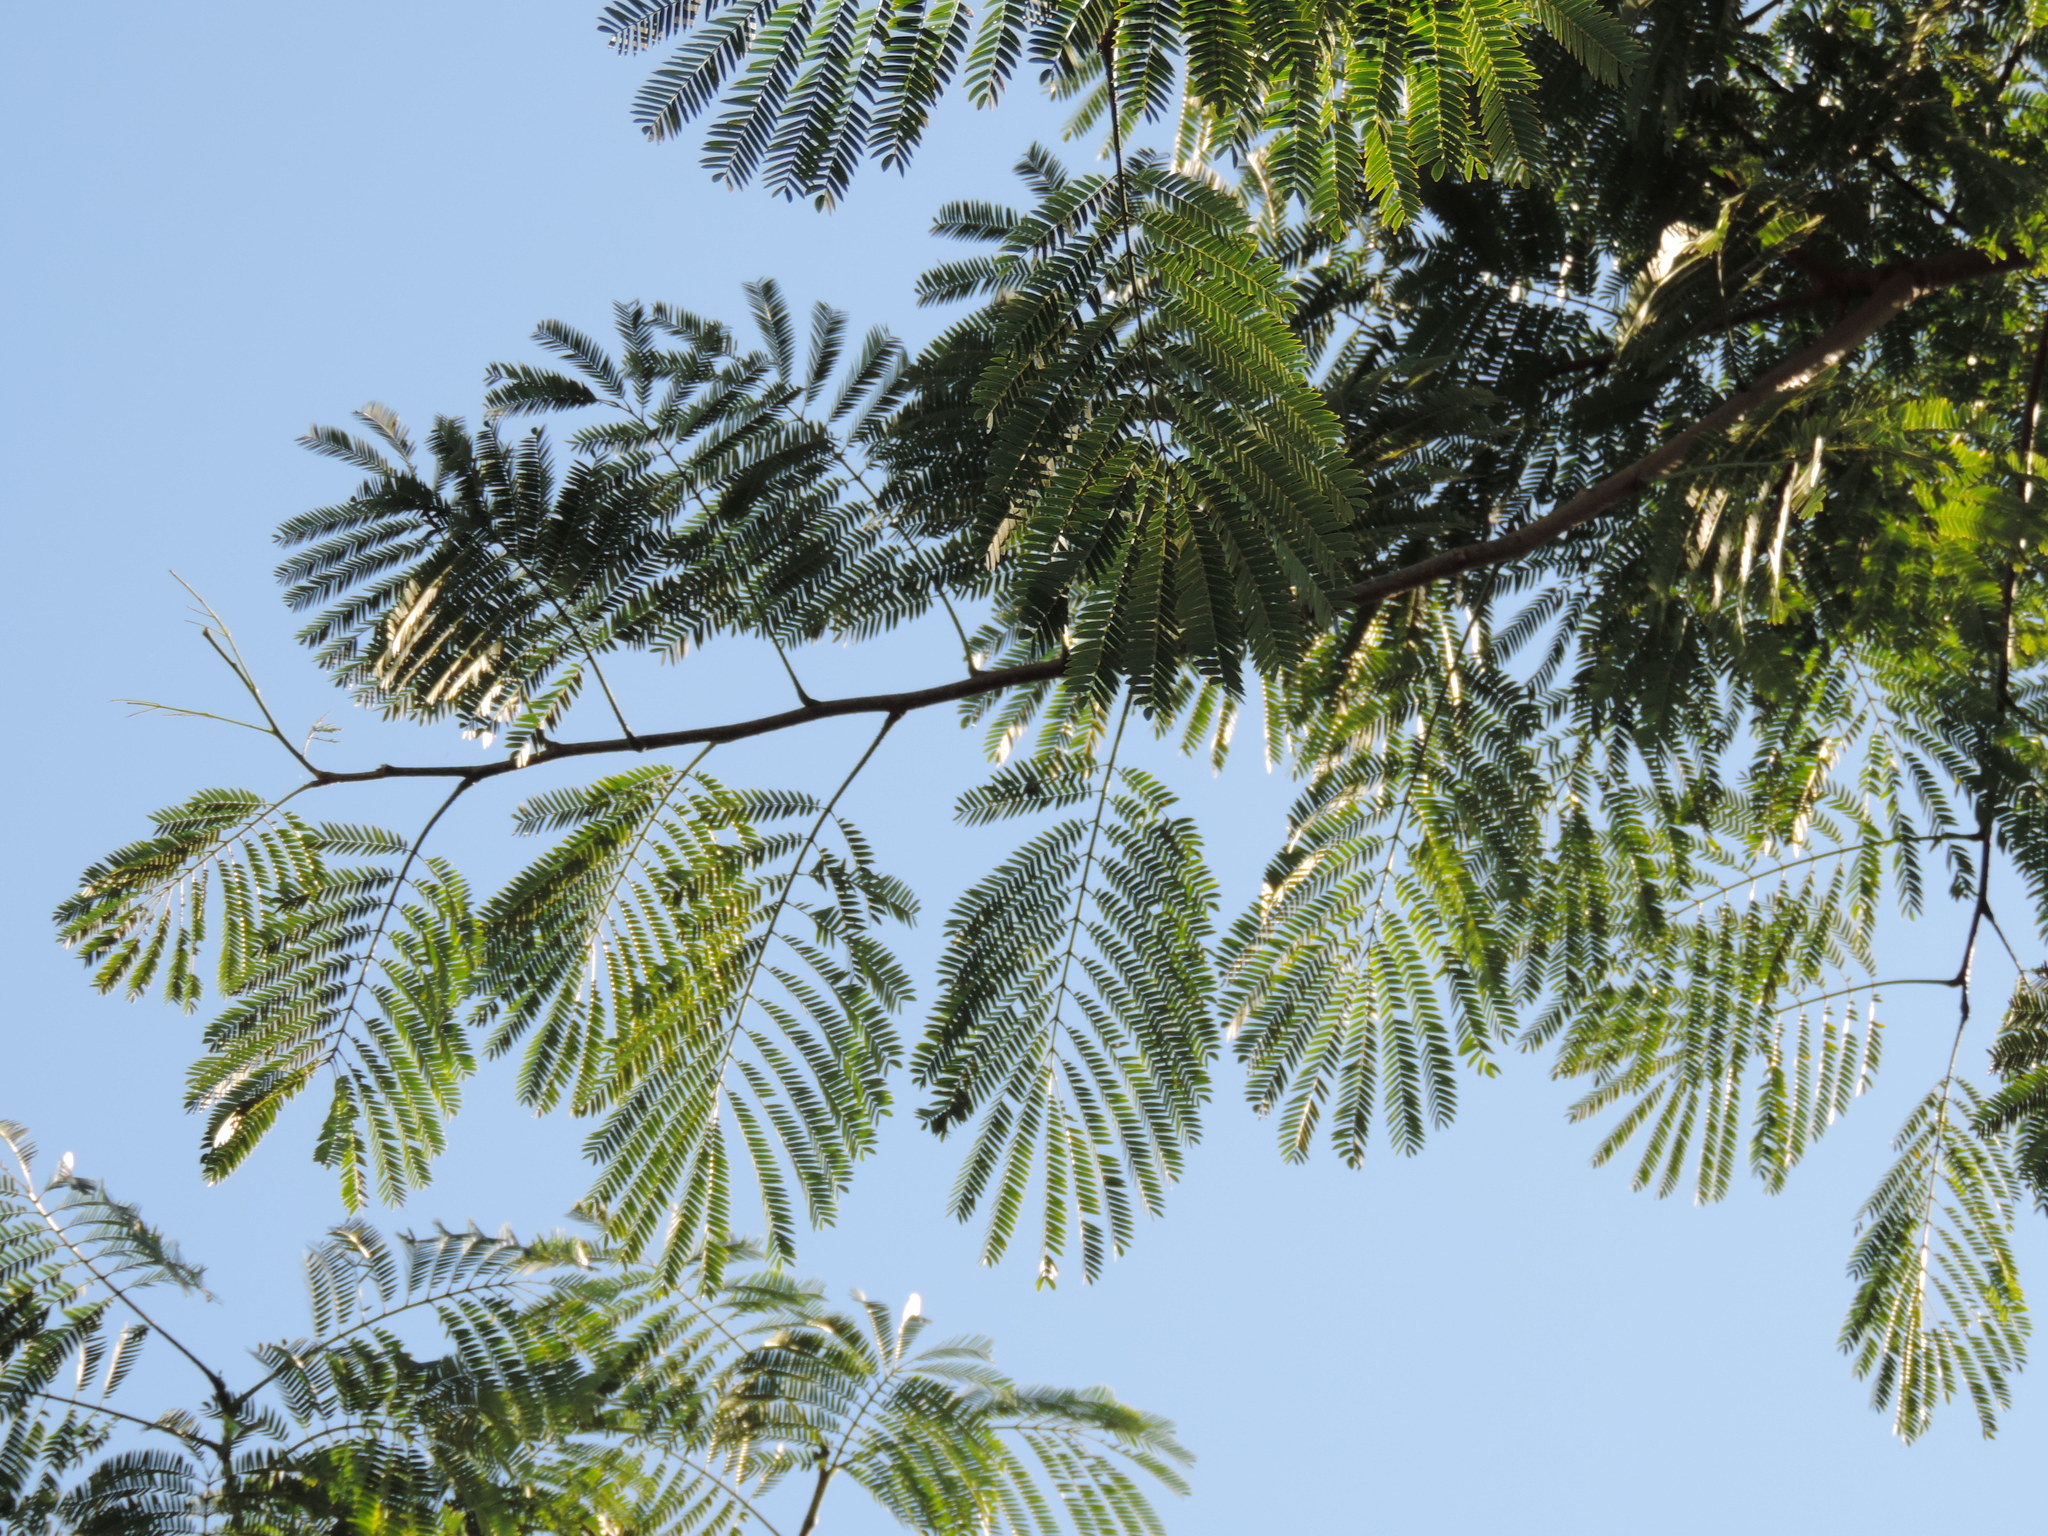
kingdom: Plantae
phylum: Tracheophyta
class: Magnoliopsida
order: Fabales
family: Fabaceae
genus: Enterolobium
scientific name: Enterolobium cyclocarpum
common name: Ear tree
